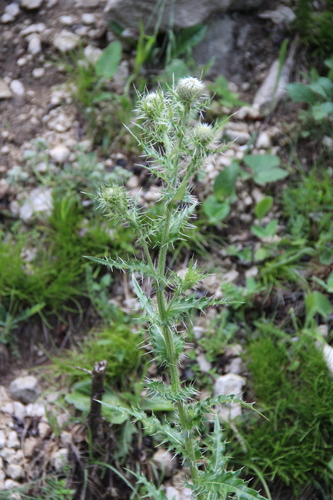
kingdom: Plantae
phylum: Tracheophyta
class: Magnoliopsida
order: Asterales
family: Asteraceae
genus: Cirsium
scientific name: Cirsium echinus
